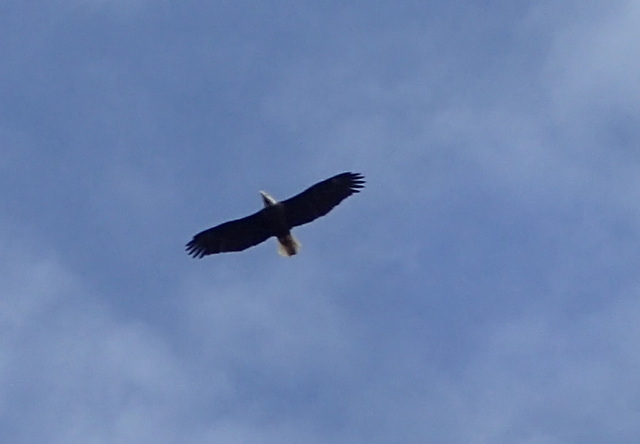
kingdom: Animalia
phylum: Chordata
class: Aves
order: Accipitriformes
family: Accipitridae
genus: Haliaeetus
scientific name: Haliaeetus leucocephalus
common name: Bald eagle
